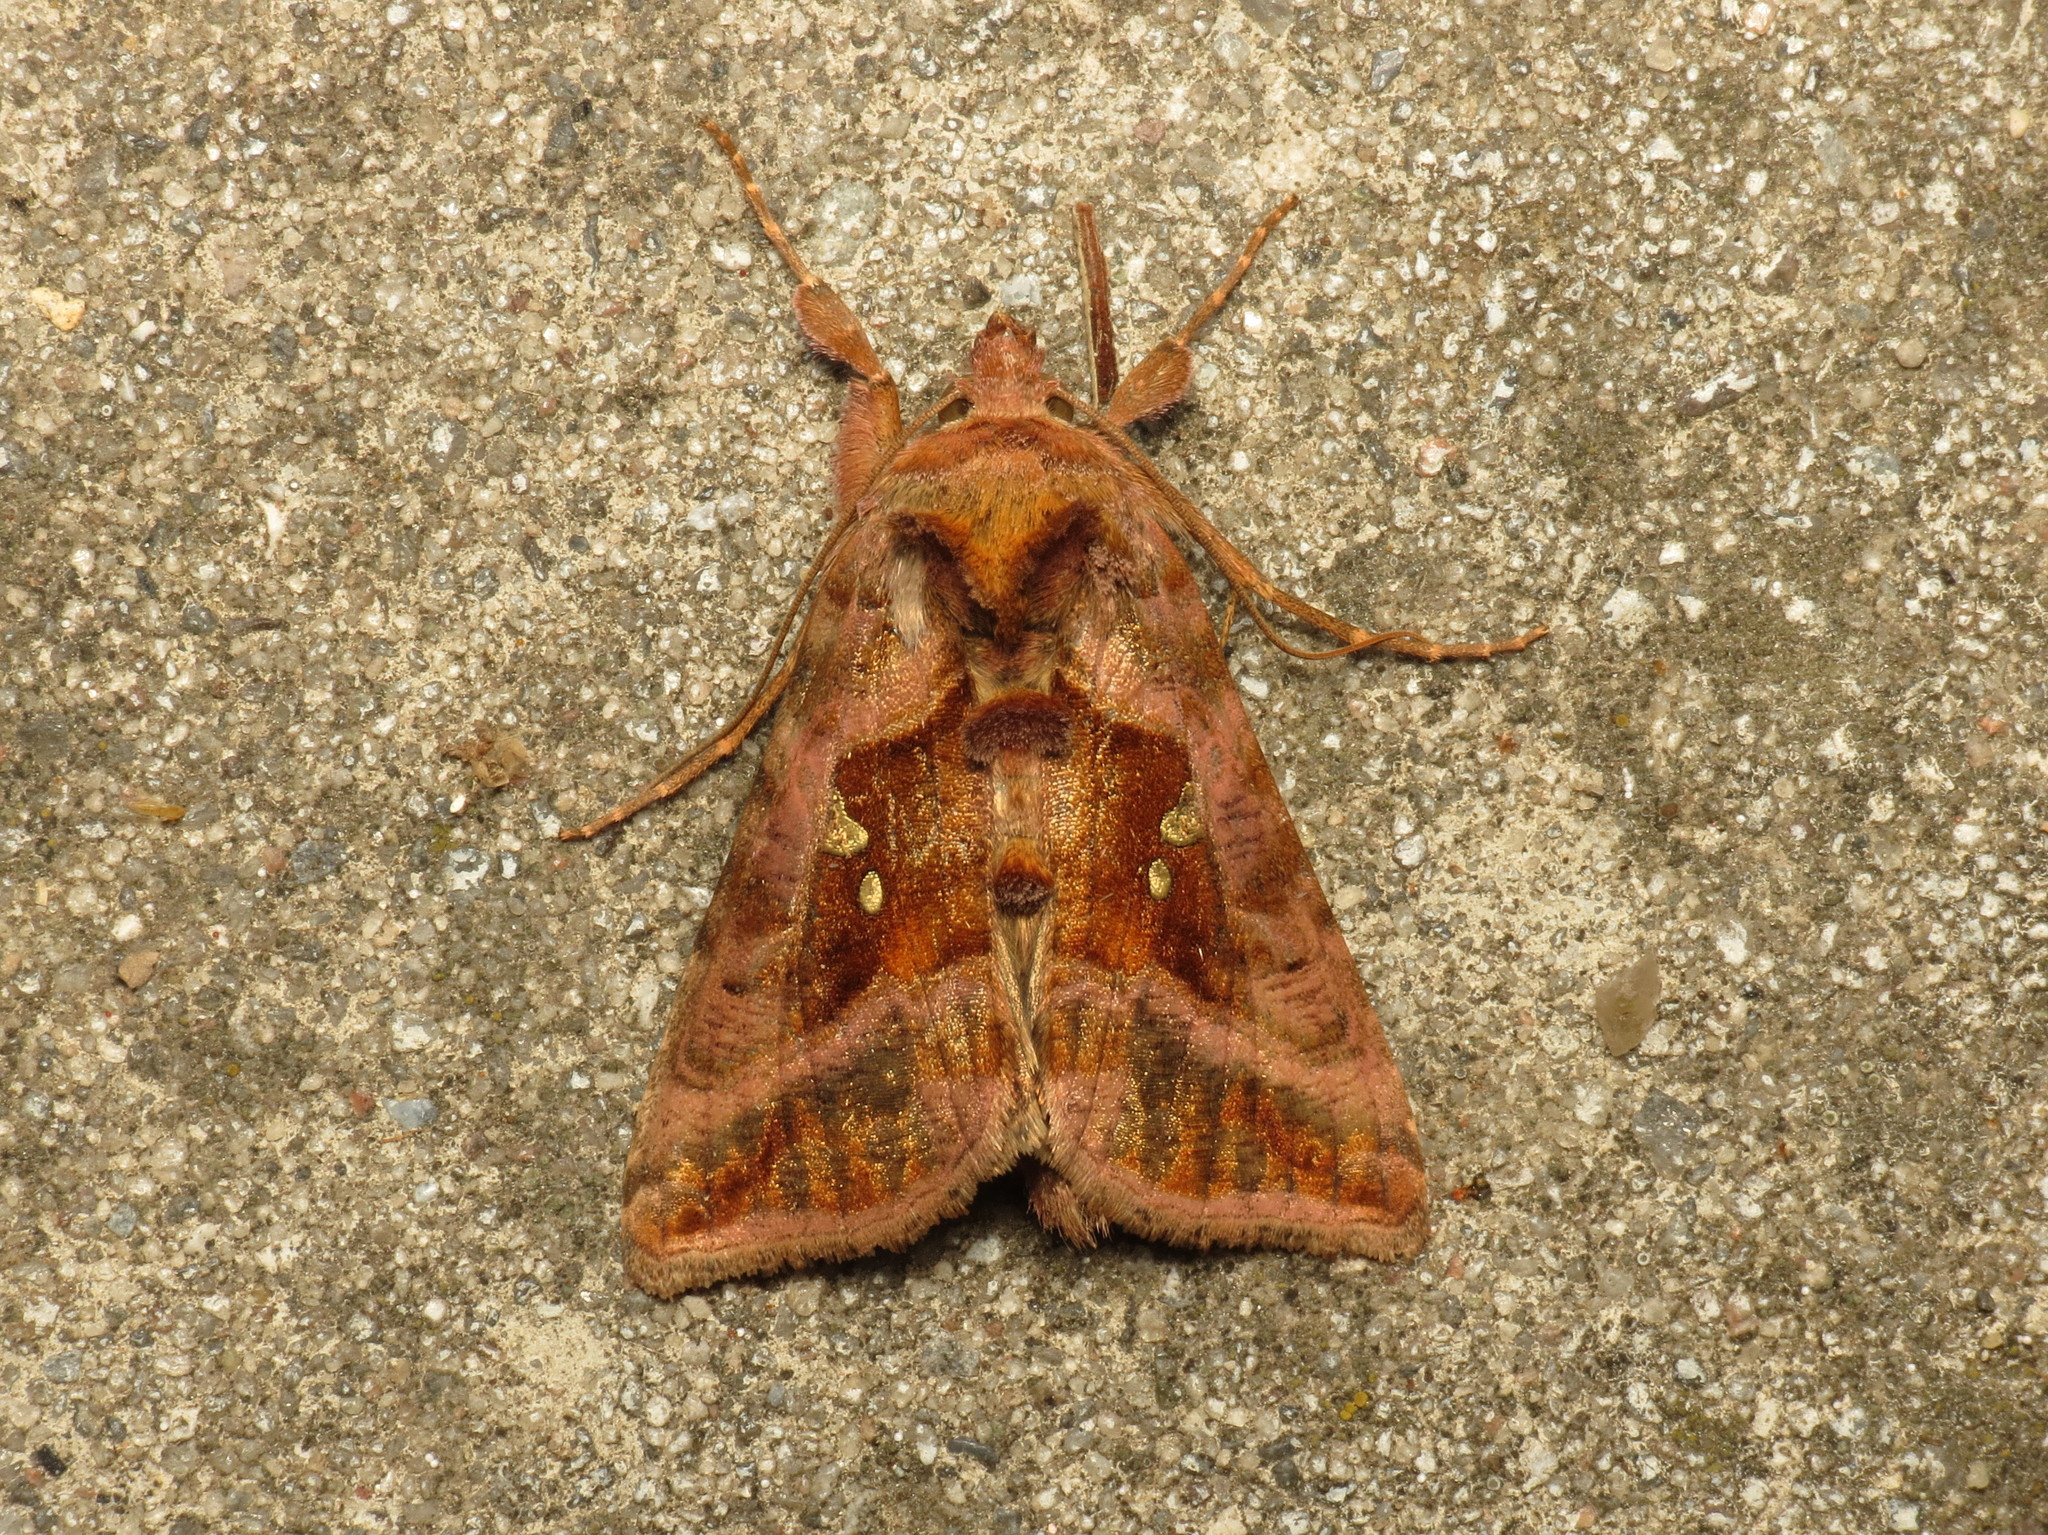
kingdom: Animalia
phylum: Arthropoda
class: Insecta
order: Lepidoptera
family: Noctuidae
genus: Autographa
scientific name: Autographa jota
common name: Plain golden y
